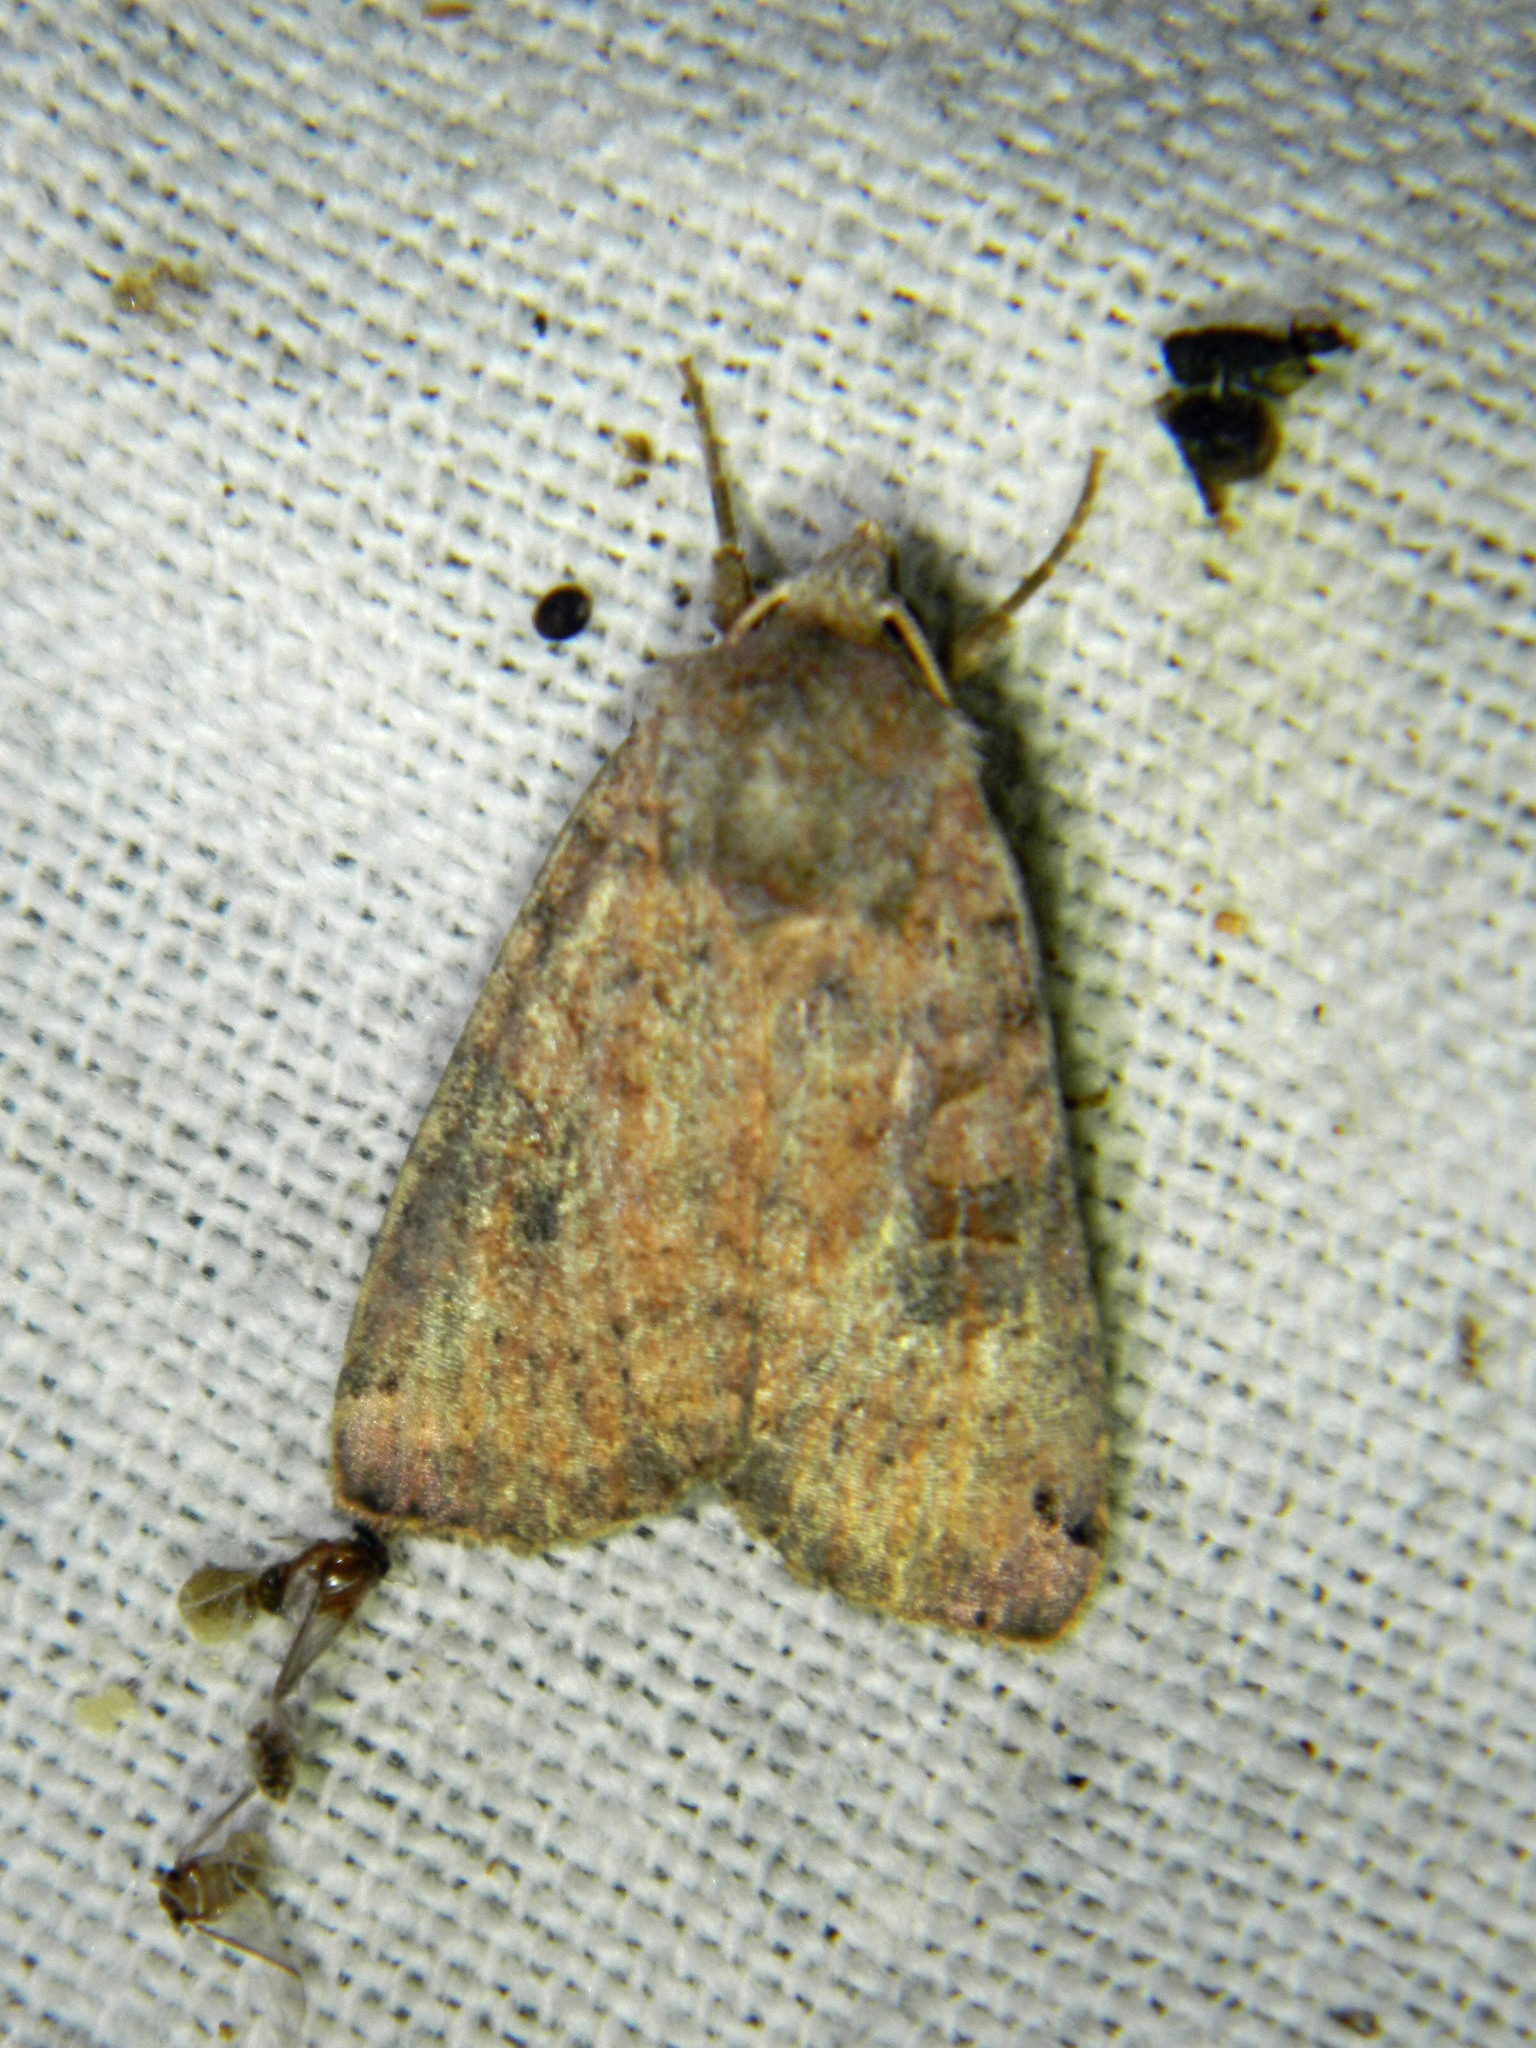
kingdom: Animalia
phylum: Arthropoda
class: Insecta
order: Lepidoptera
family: Noctuidae
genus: Xestia
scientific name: Xestia smithii
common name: Smith's dart
